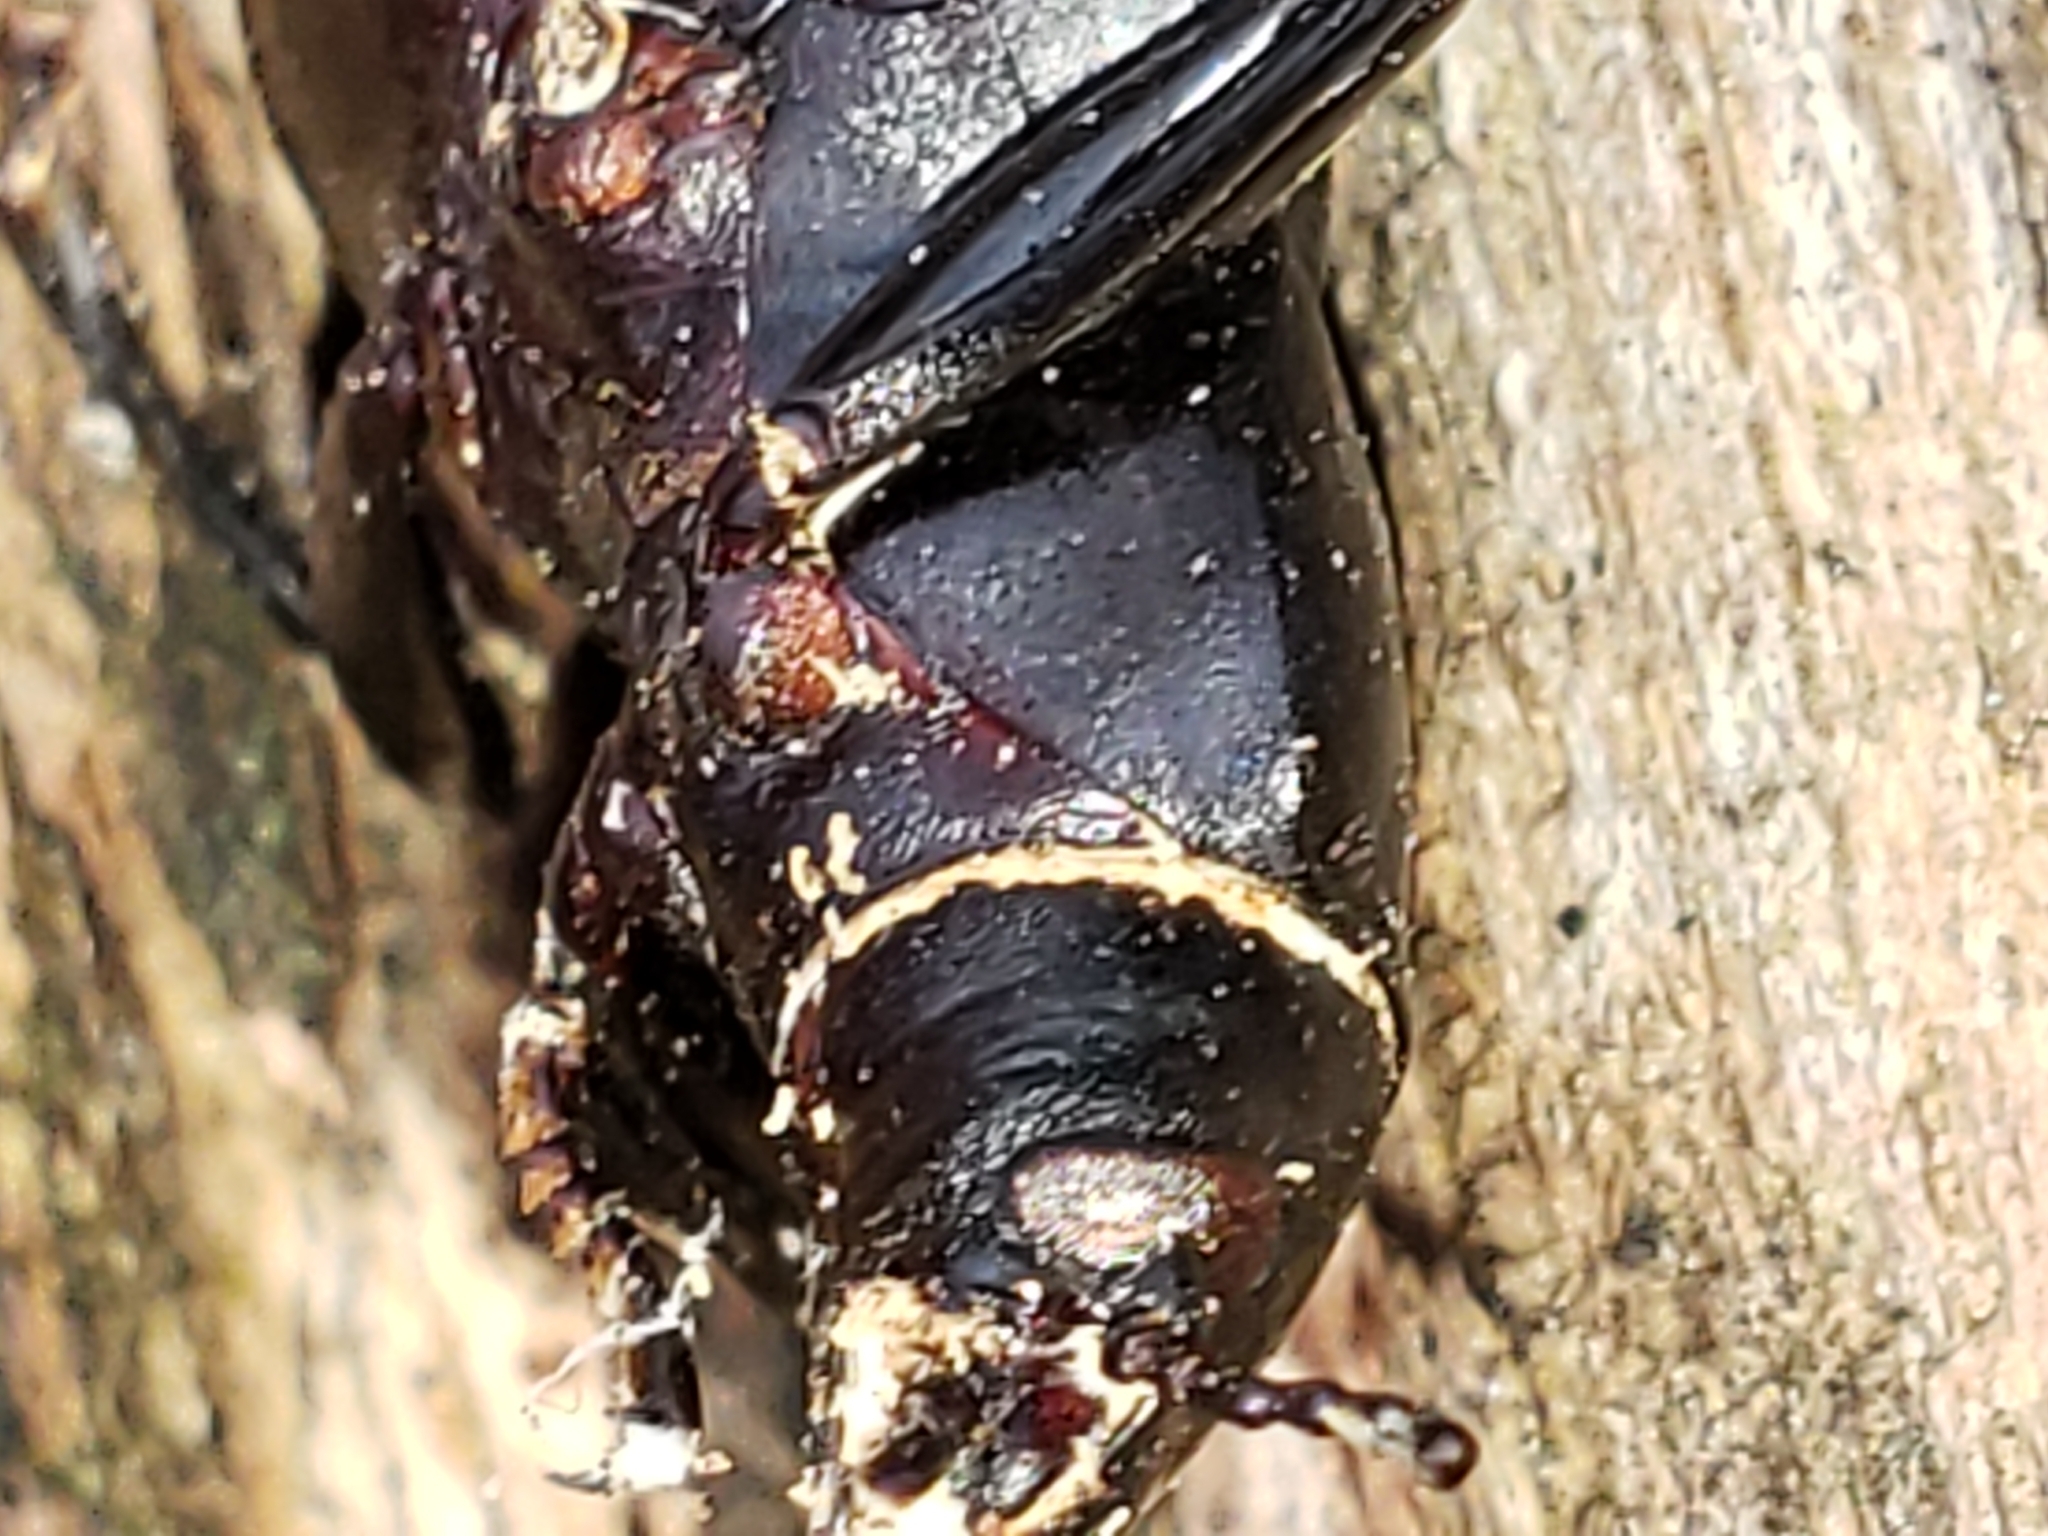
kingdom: Fungi
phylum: Ascomycota
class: Sordariomycetes
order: Hypocreales
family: Cordycipitaceae
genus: Beauveria
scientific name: Beauveria bassiana
